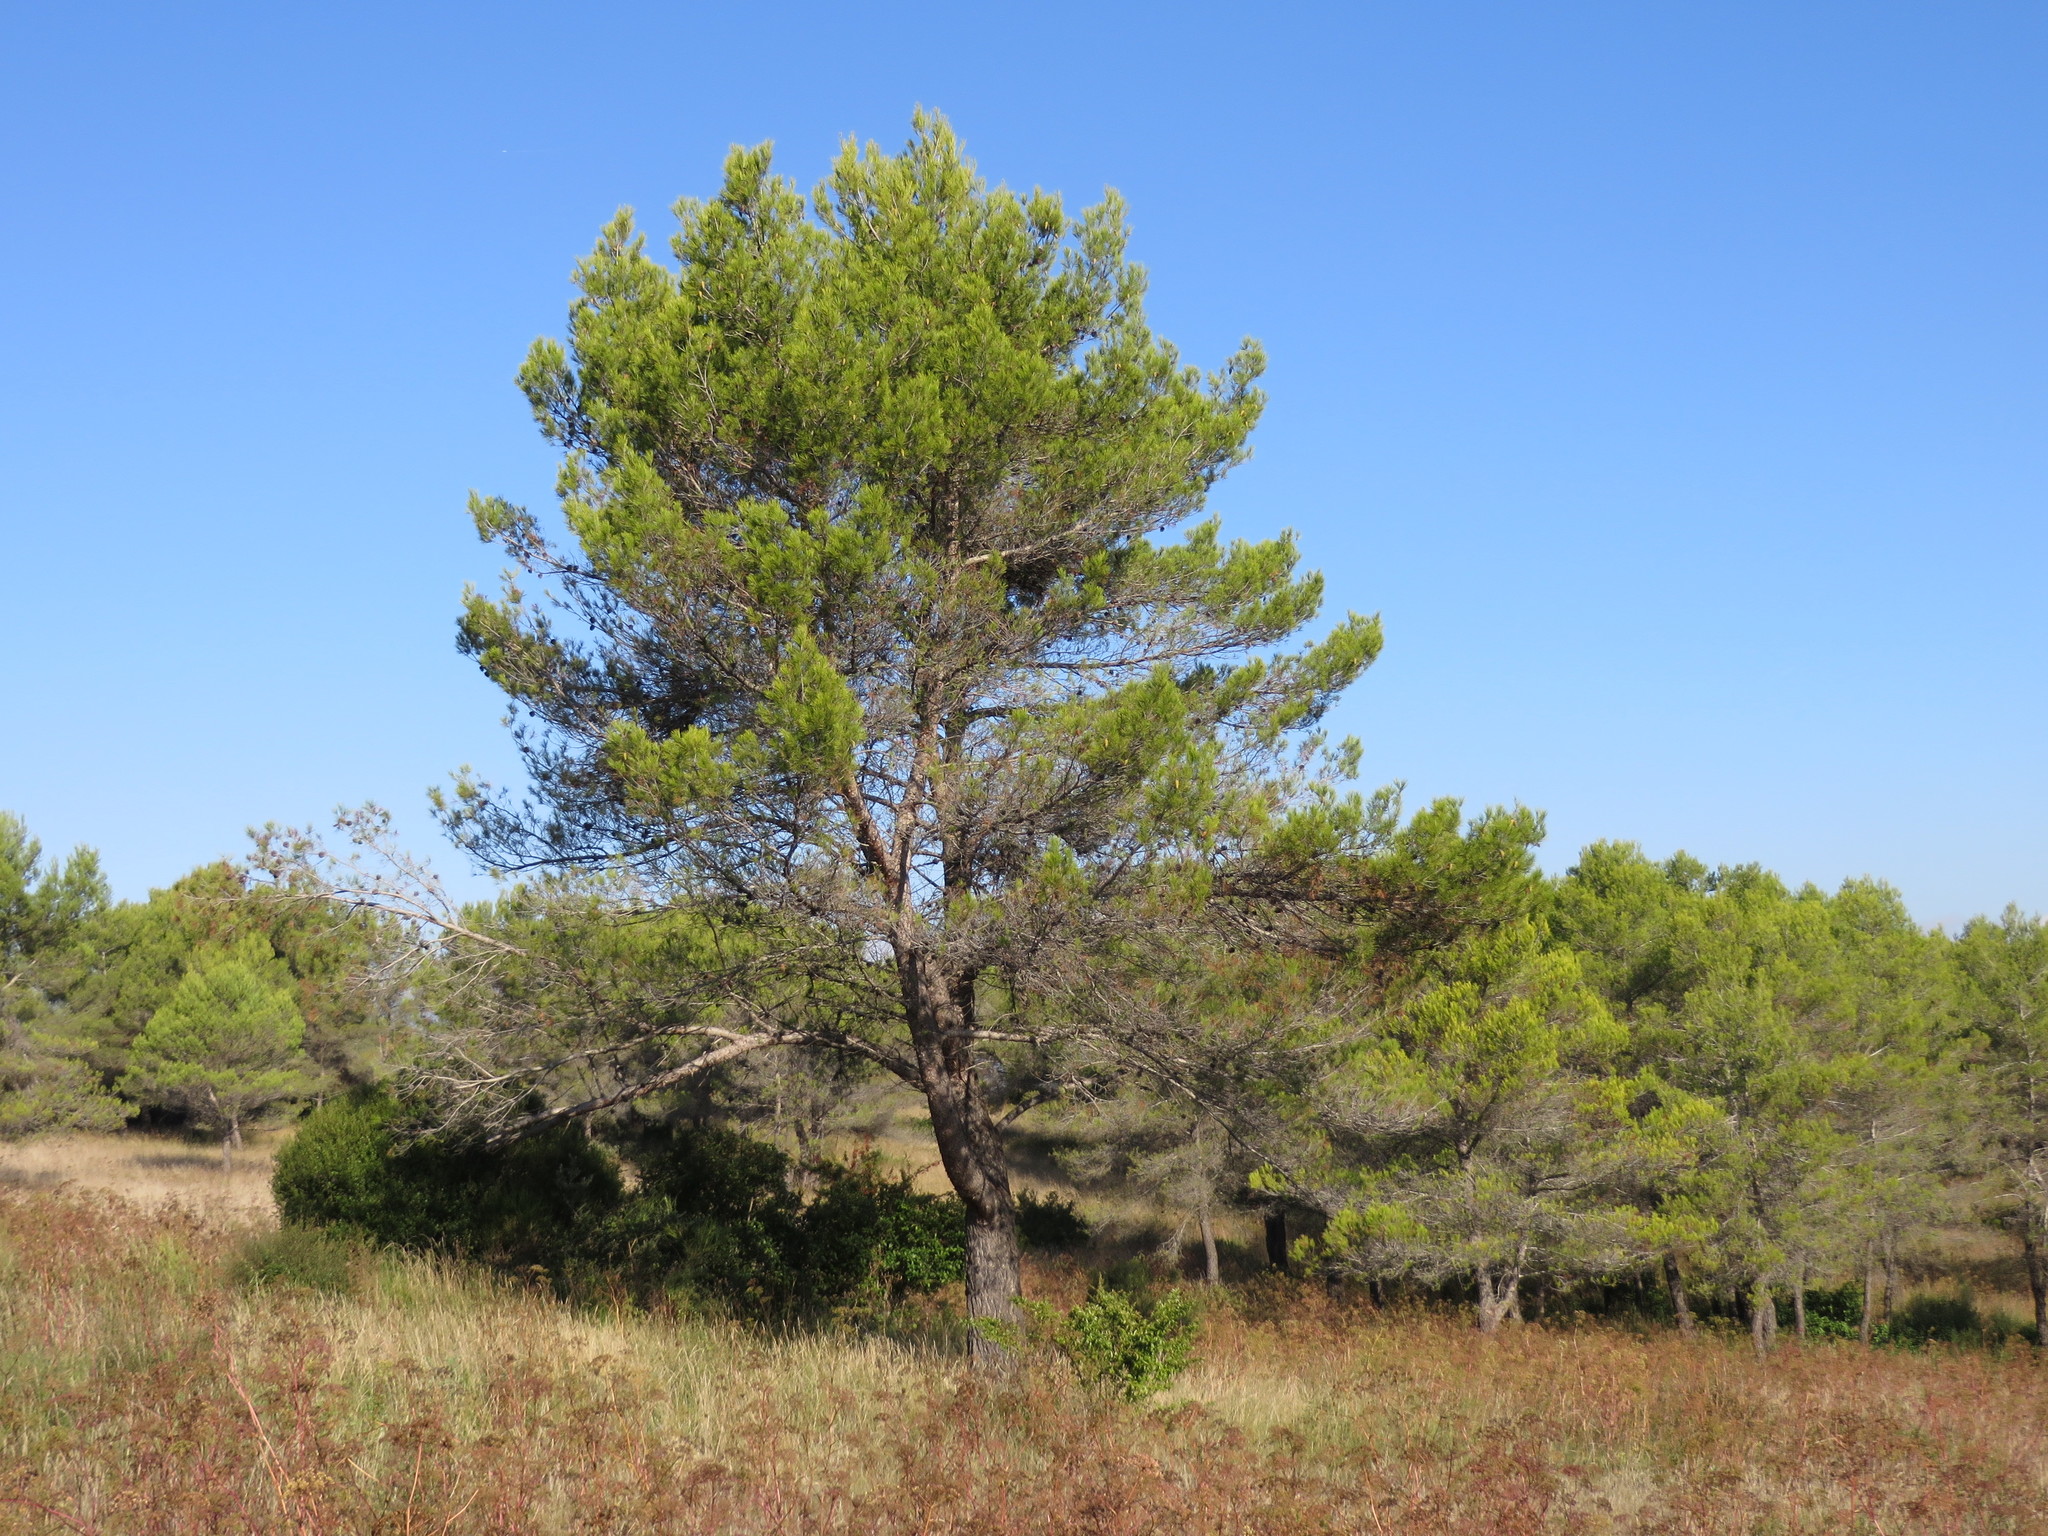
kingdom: Plantae
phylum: Tracheophyta
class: Pinopsida
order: Pinales
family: Pinaceae
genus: Pinus
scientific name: Pinus halepensis
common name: Aleppo pine
